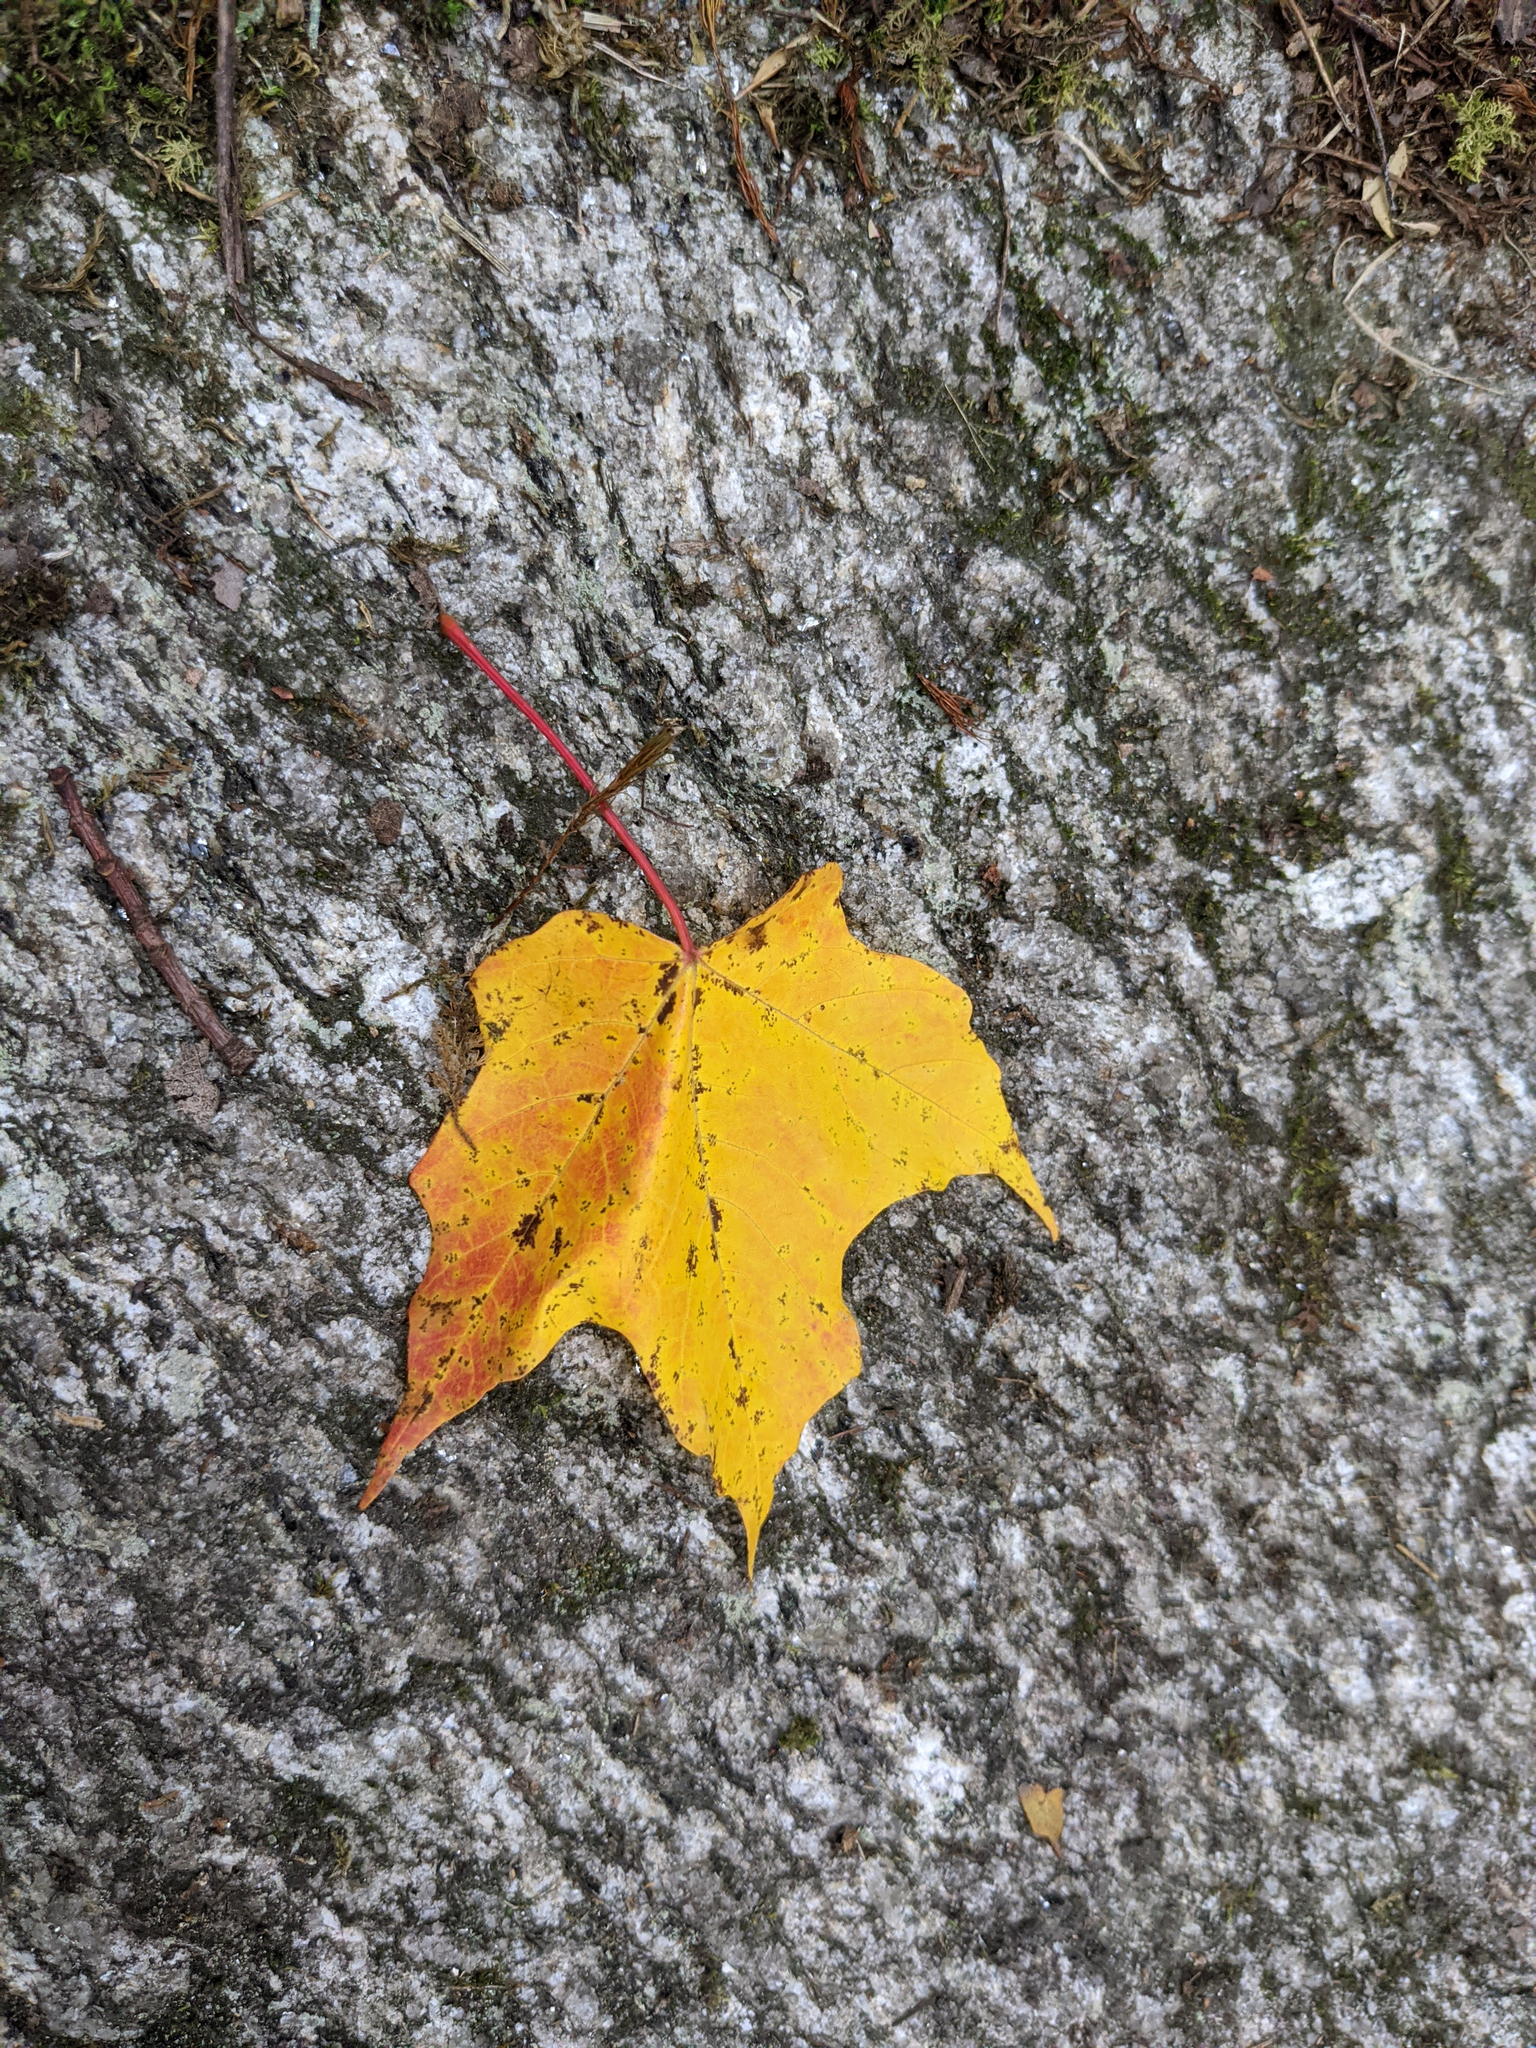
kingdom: Plantae
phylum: Tracheophyta
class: Magnoliopsida
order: Sapindales
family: Sapindaceae
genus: Acer
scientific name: Acer saccharum
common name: Sugar maple
